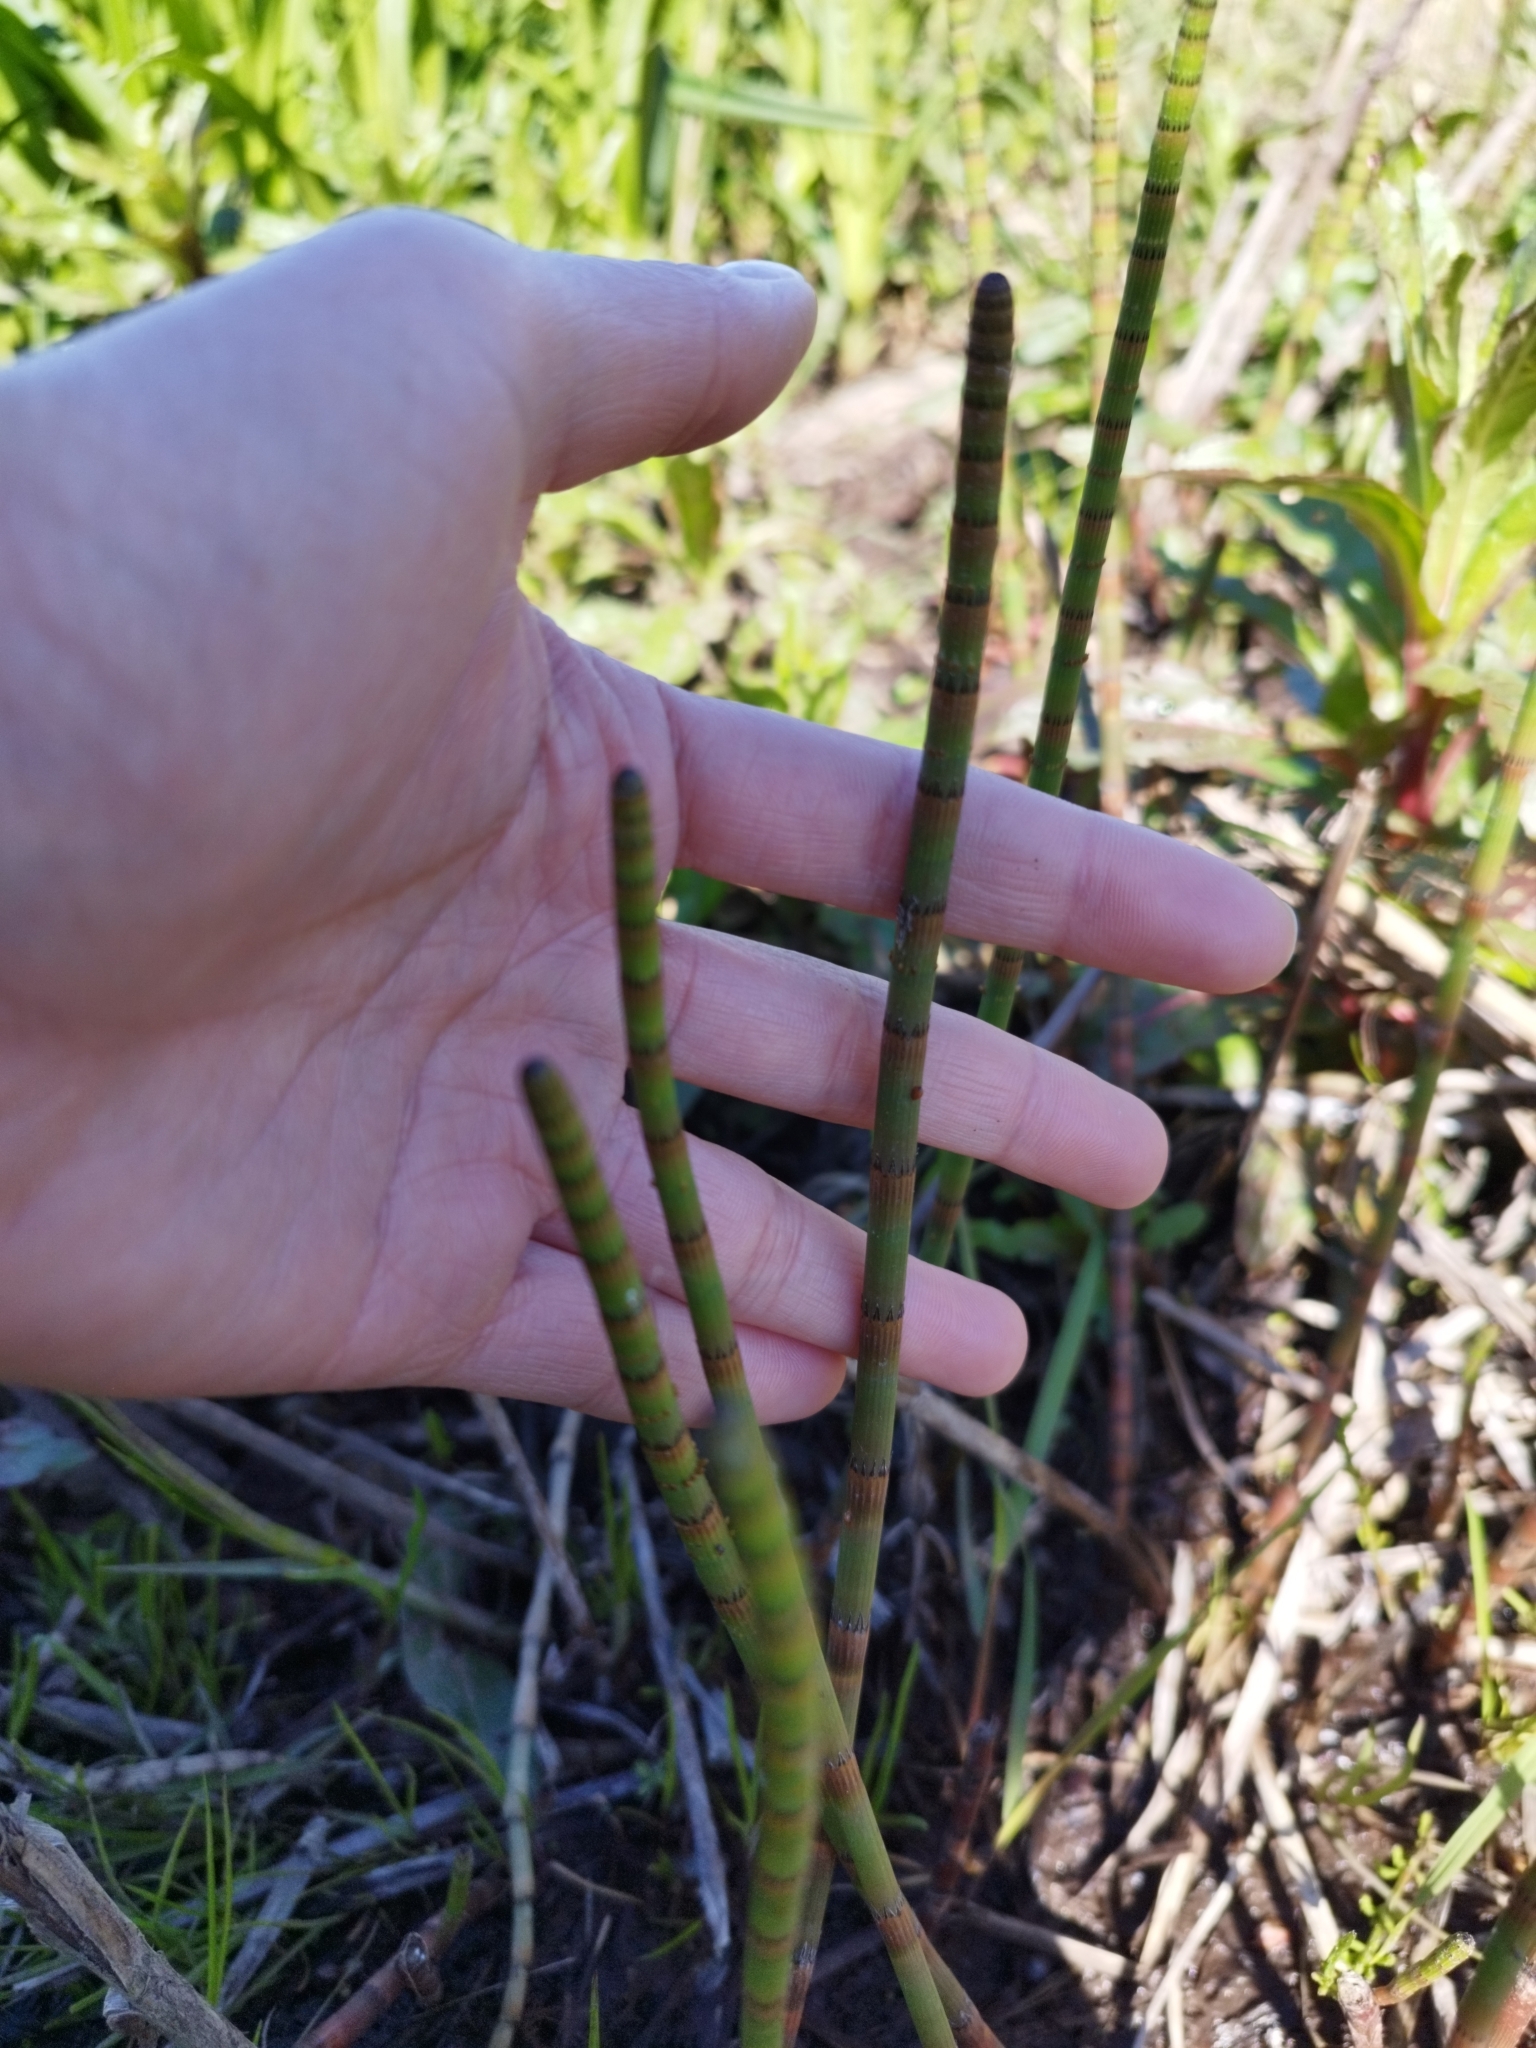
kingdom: Plantae
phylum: Tracheophyta
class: Polypodiopsida
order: Equisetales
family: Equisetaceae
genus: Equisetum
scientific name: Equisetum fluviatile
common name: Water horsetail
